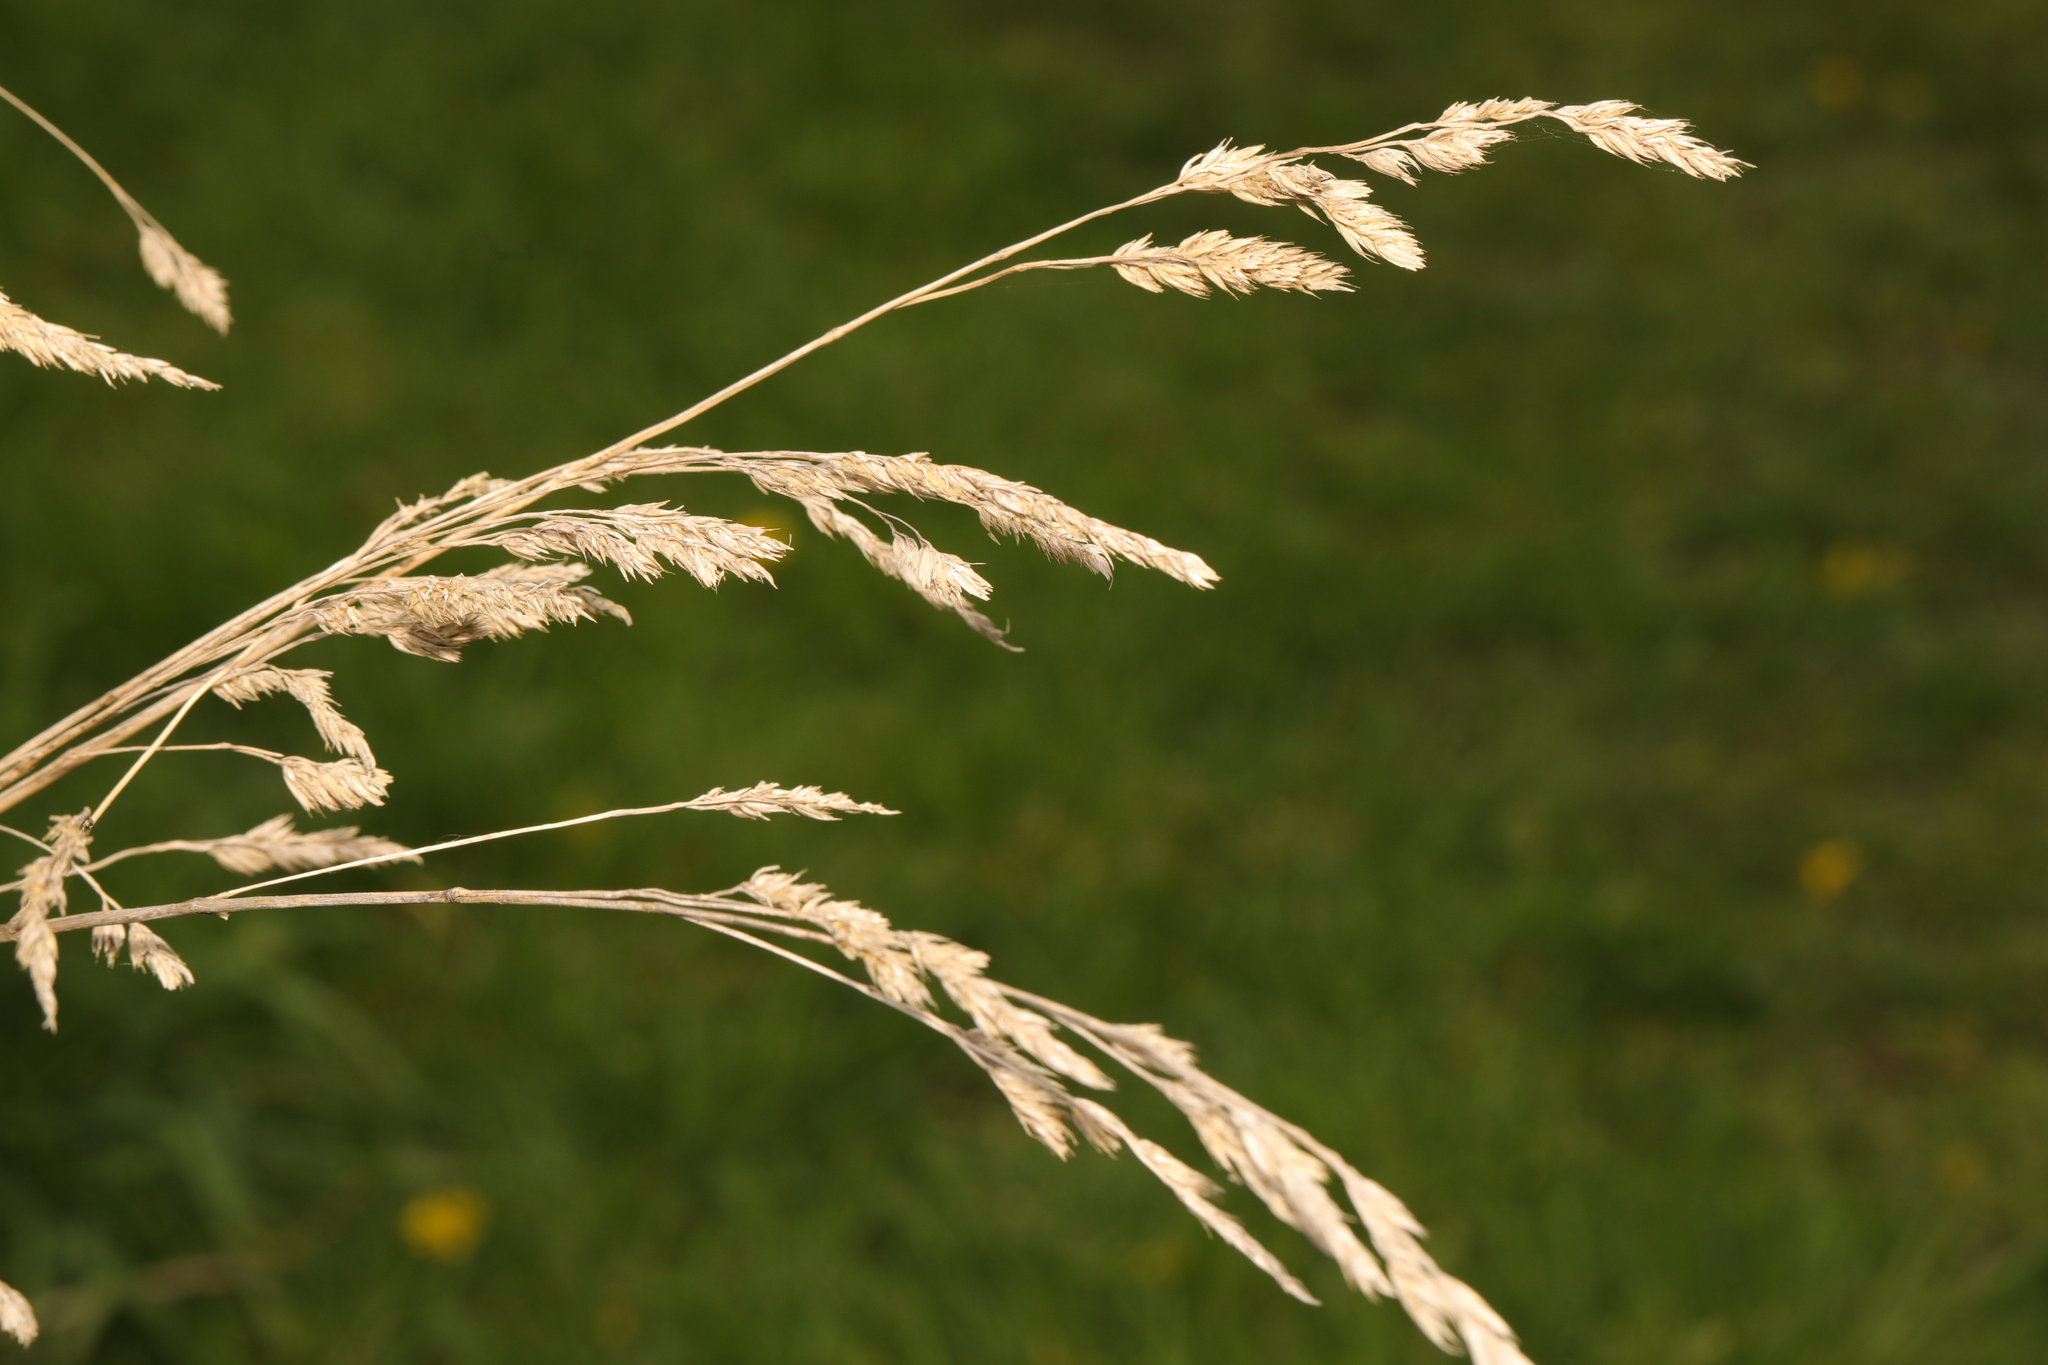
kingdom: Plantae
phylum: Tracheophyta
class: Liliopsida
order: Poales
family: Poaceae
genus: Dactylis
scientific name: Dactylis glomerata
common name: Orchardgrass
